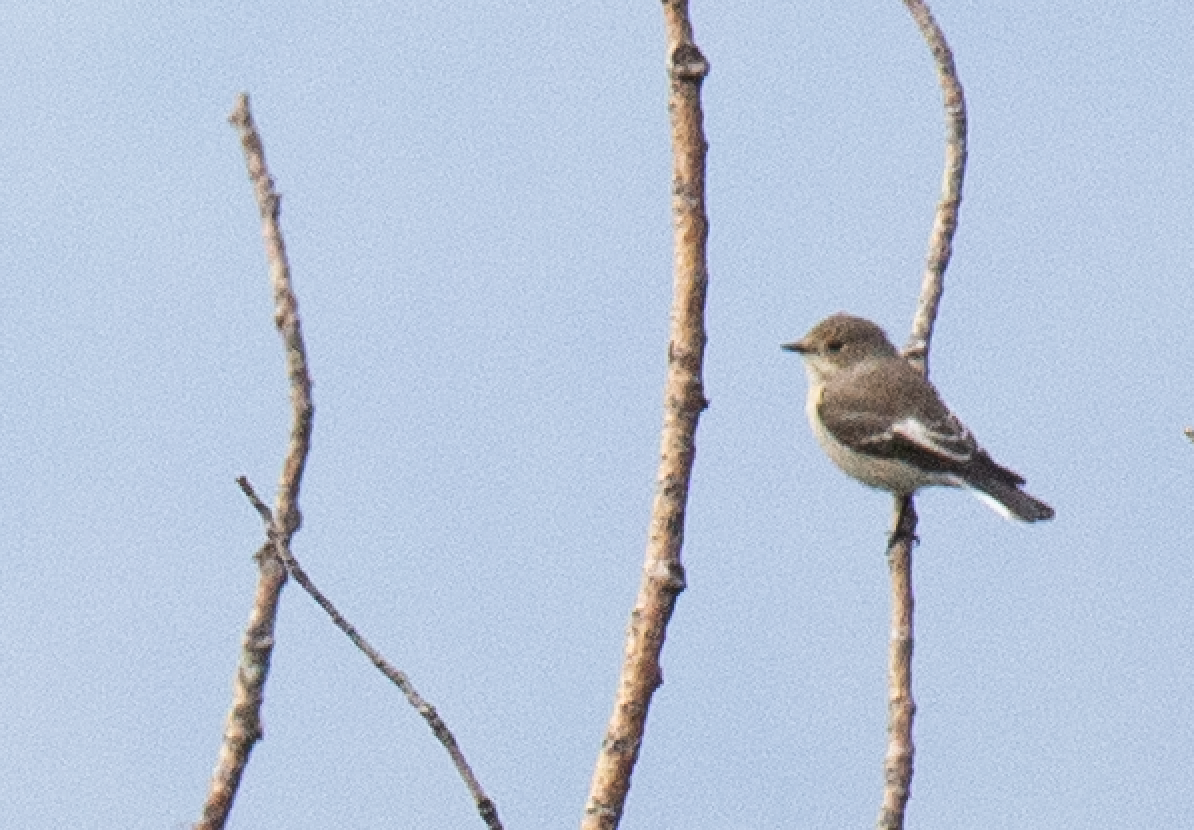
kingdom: Animalia
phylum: Chordata
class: Aves
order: Passeriformes
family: Muscicapidae
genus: Ficedula
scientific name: Ficedula hypoleuca
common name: European pied flycatcher
